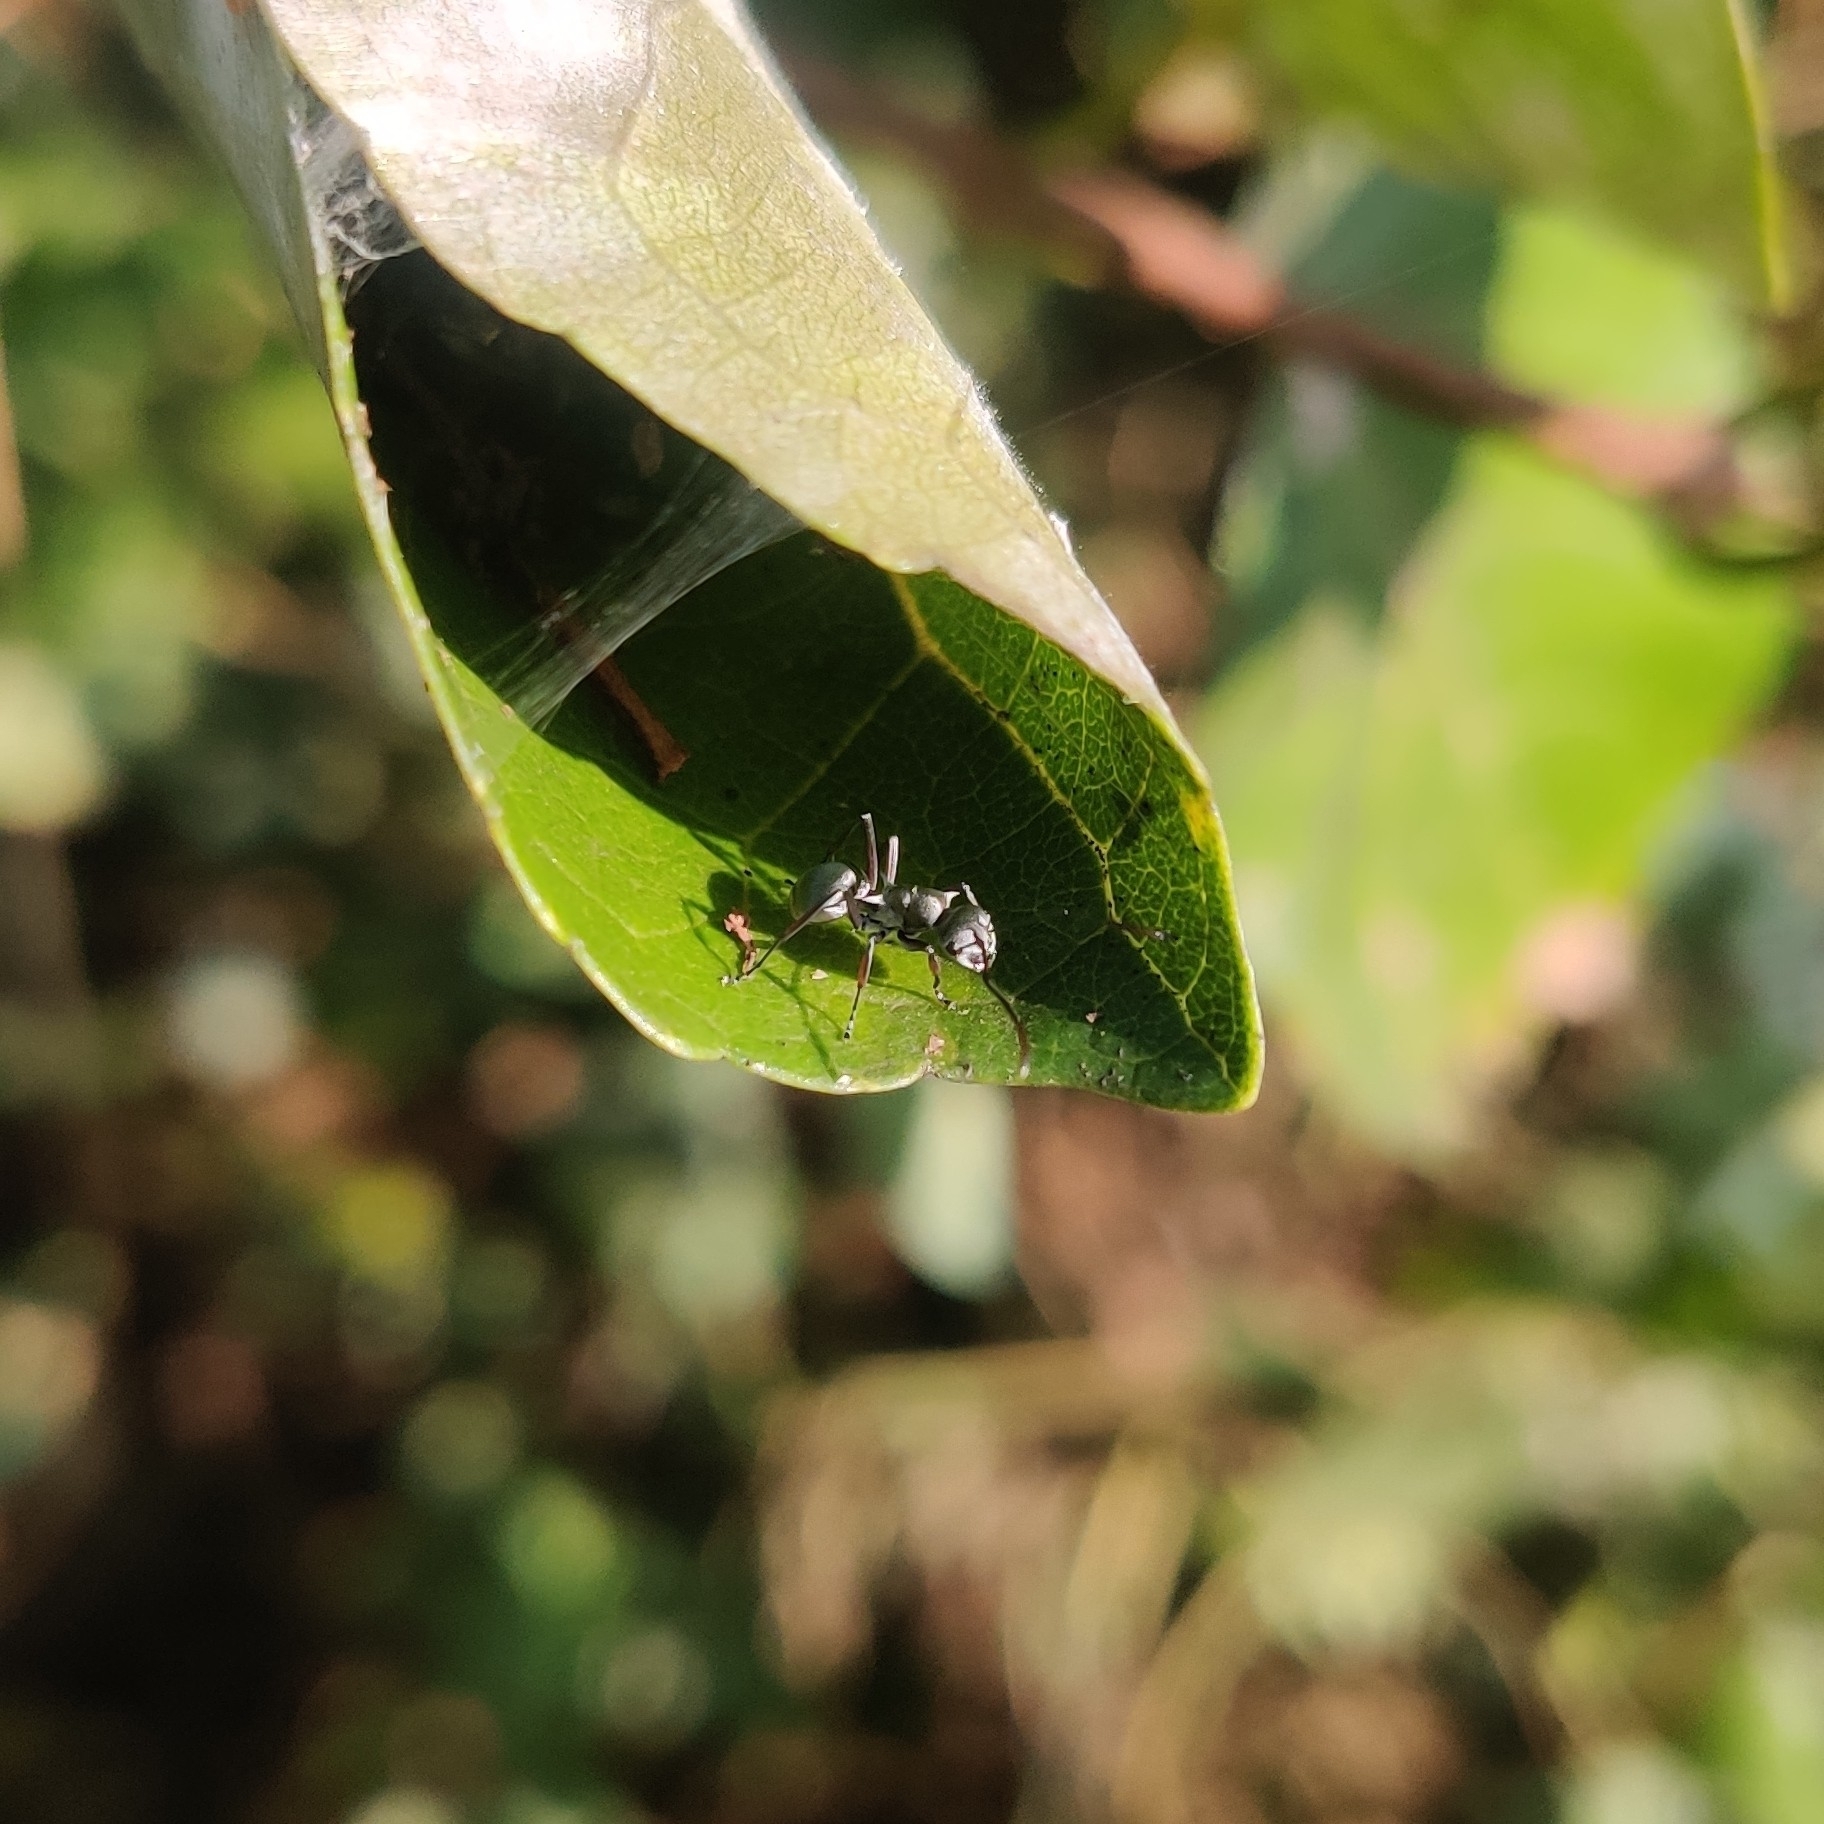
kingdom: Animalia
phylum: Arthropoda
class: Insecta
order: Hymenoptera
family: Formicidae
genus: Polyrhachis
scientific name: Polyrhachis tibialis
